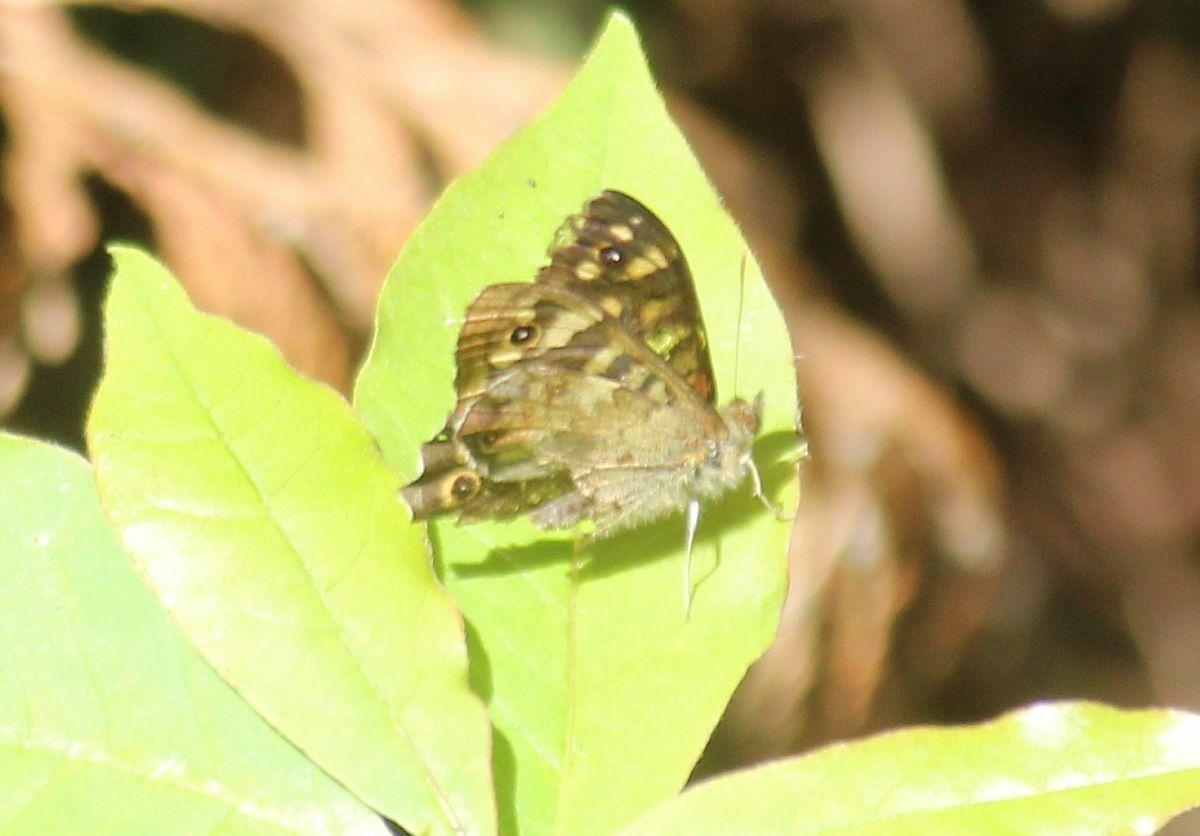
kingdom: Animalia
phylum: Arthropoda
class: Insecta
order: Lepidoptera
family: Nymphalidae
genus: Pararge
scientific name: Pararge aegeria
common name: Speckled wood
